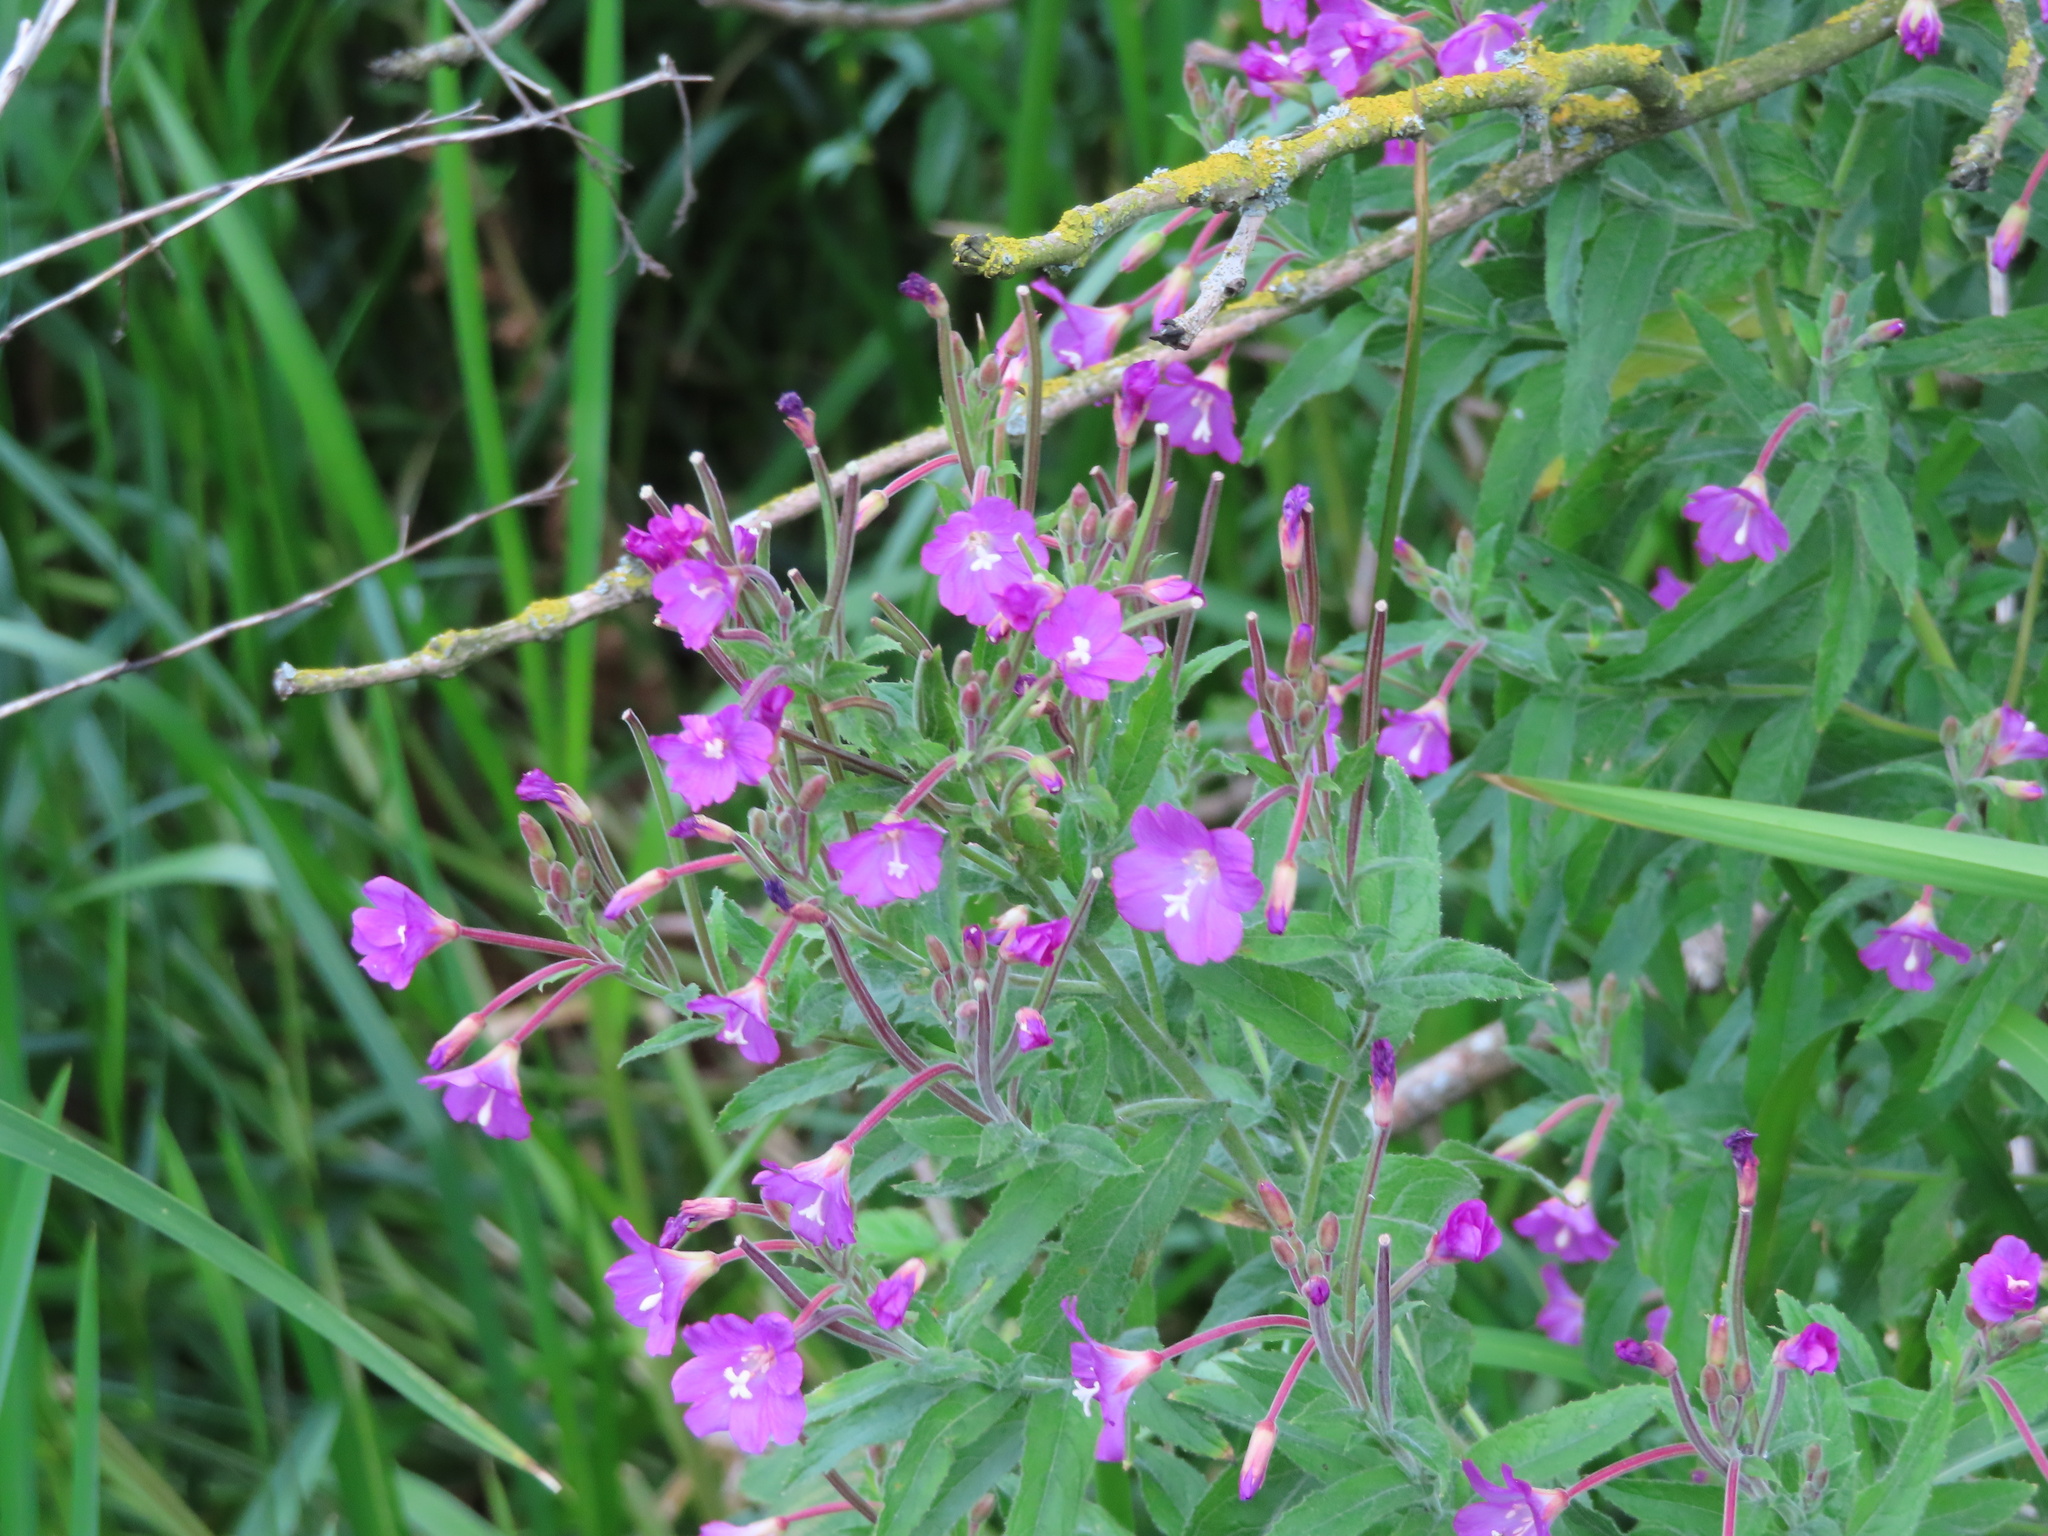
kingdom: Plantae
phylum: Tracheophyta
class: Magnoliopsida
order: Myrtales
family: Onagraceae
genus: Epilobium
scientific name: Epilobium hirsutum
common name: Great willowherb
